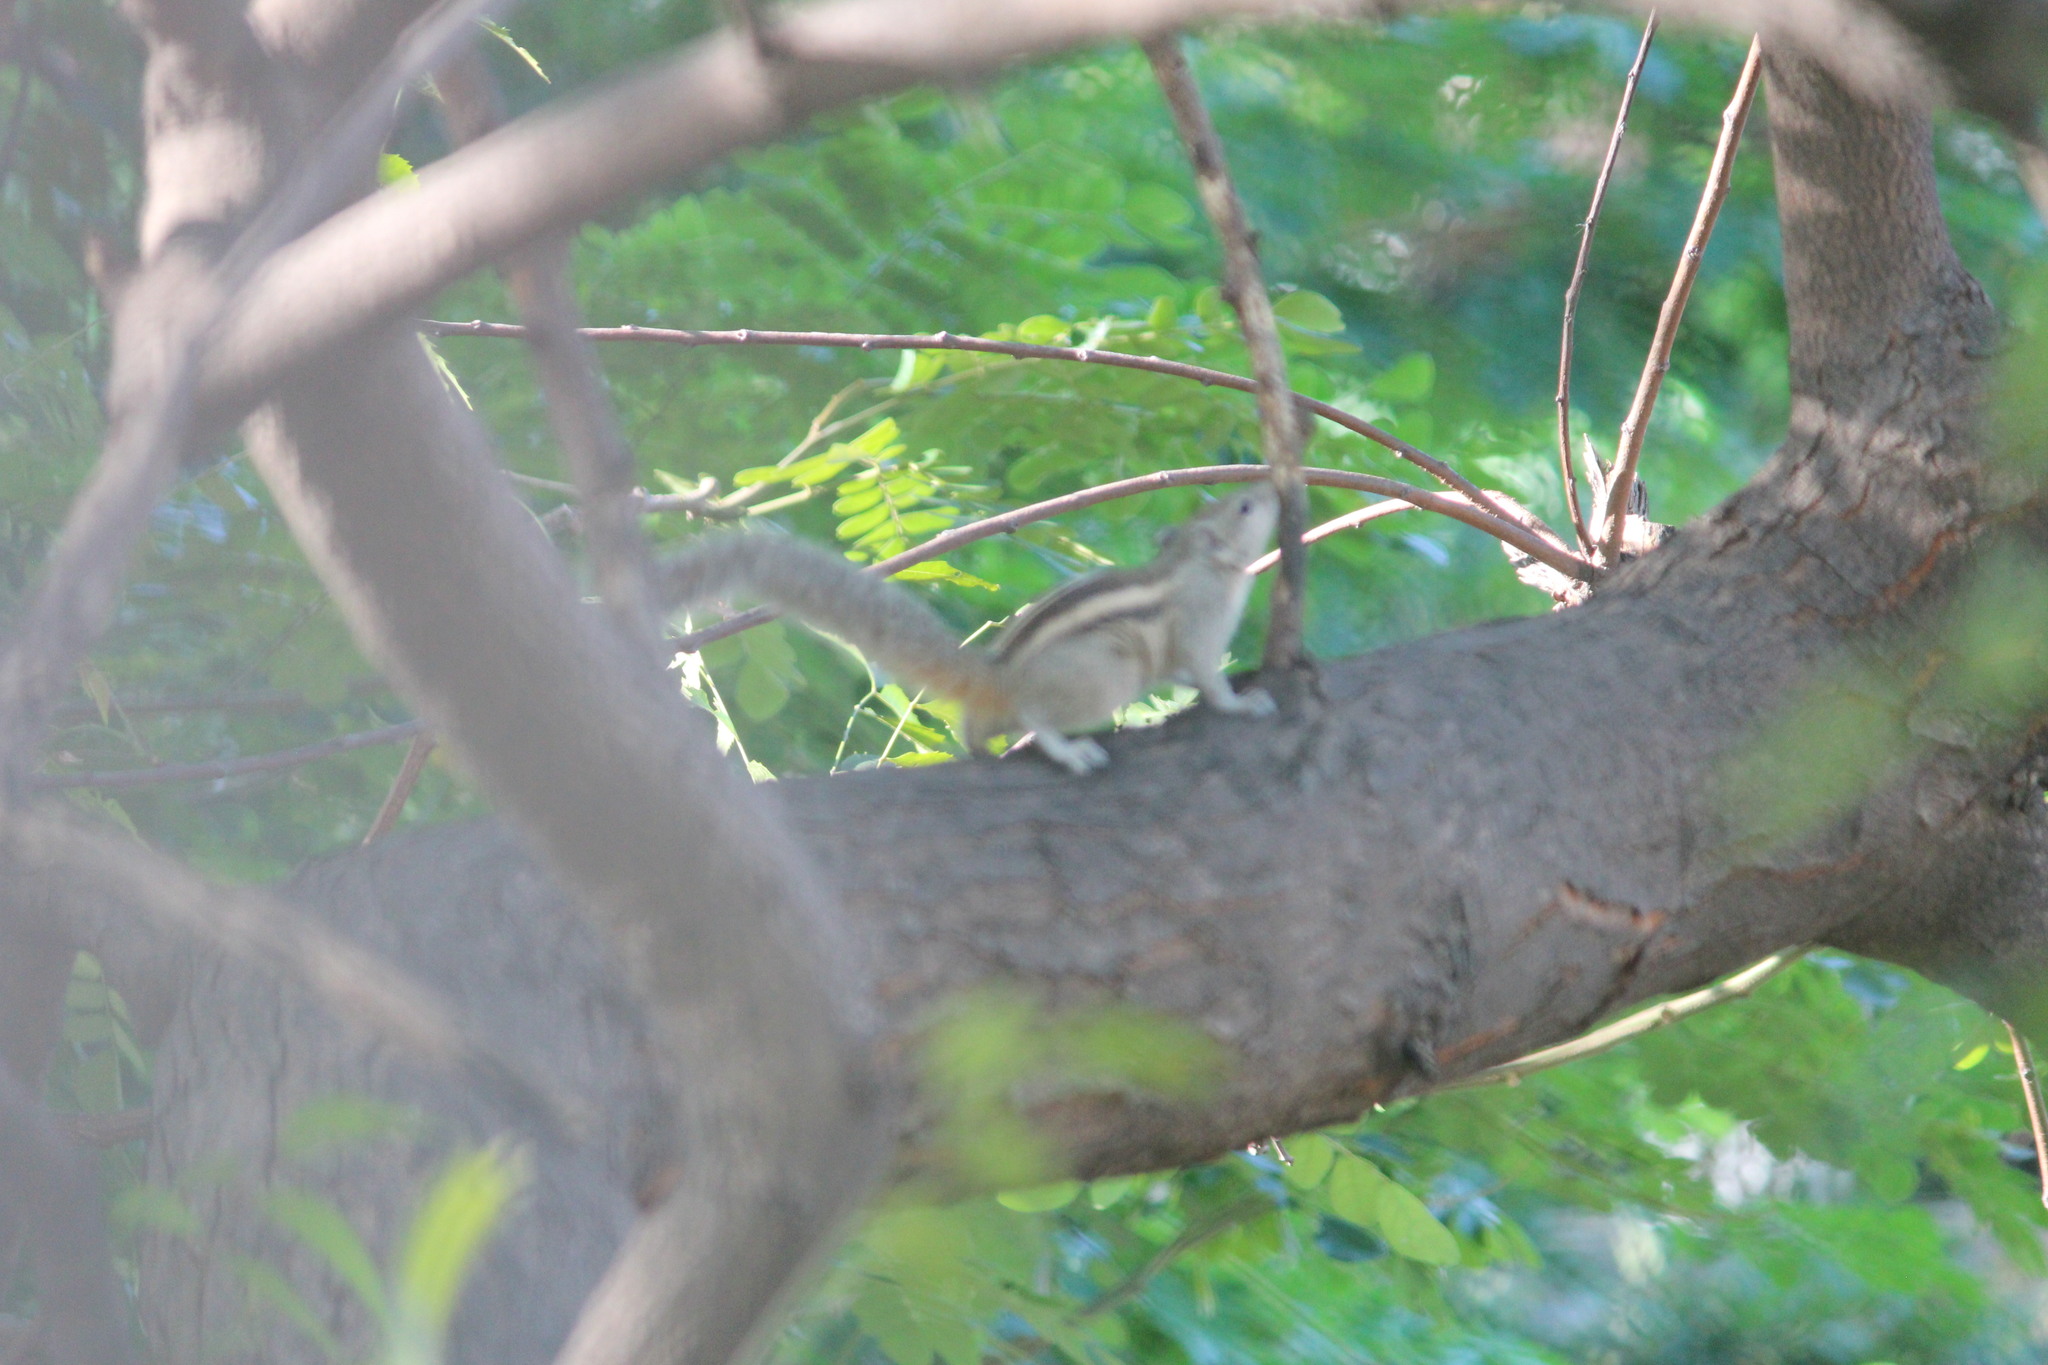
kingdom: Animalia
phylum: Chordata
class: Mammalia
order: Rodentia
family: Sciuridae
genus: Funambulus
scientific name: Funambulus palmarum
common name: Indian palm squirrel
